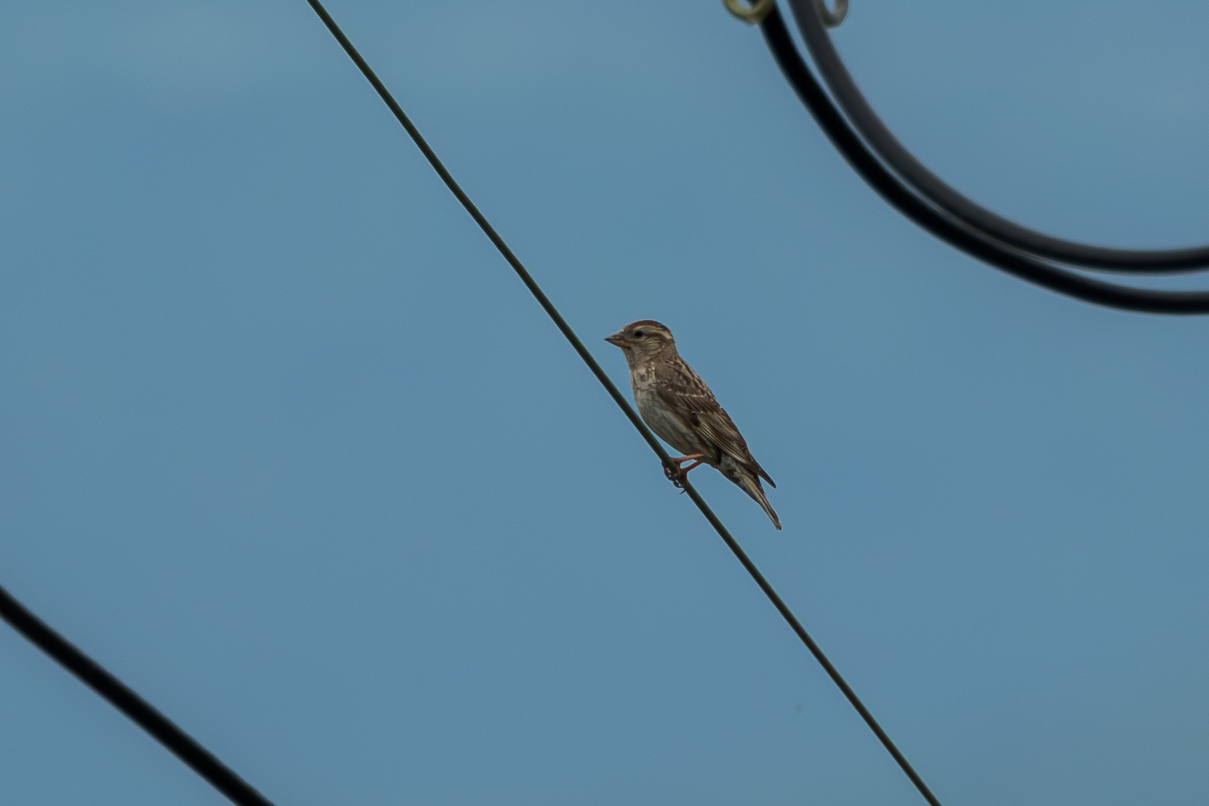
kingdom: Animalia
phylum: Chordata
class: Aves
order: Passeriformes
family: Passeridae
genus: Petronia
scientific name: Petronia petronia
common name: Rock sparrow
